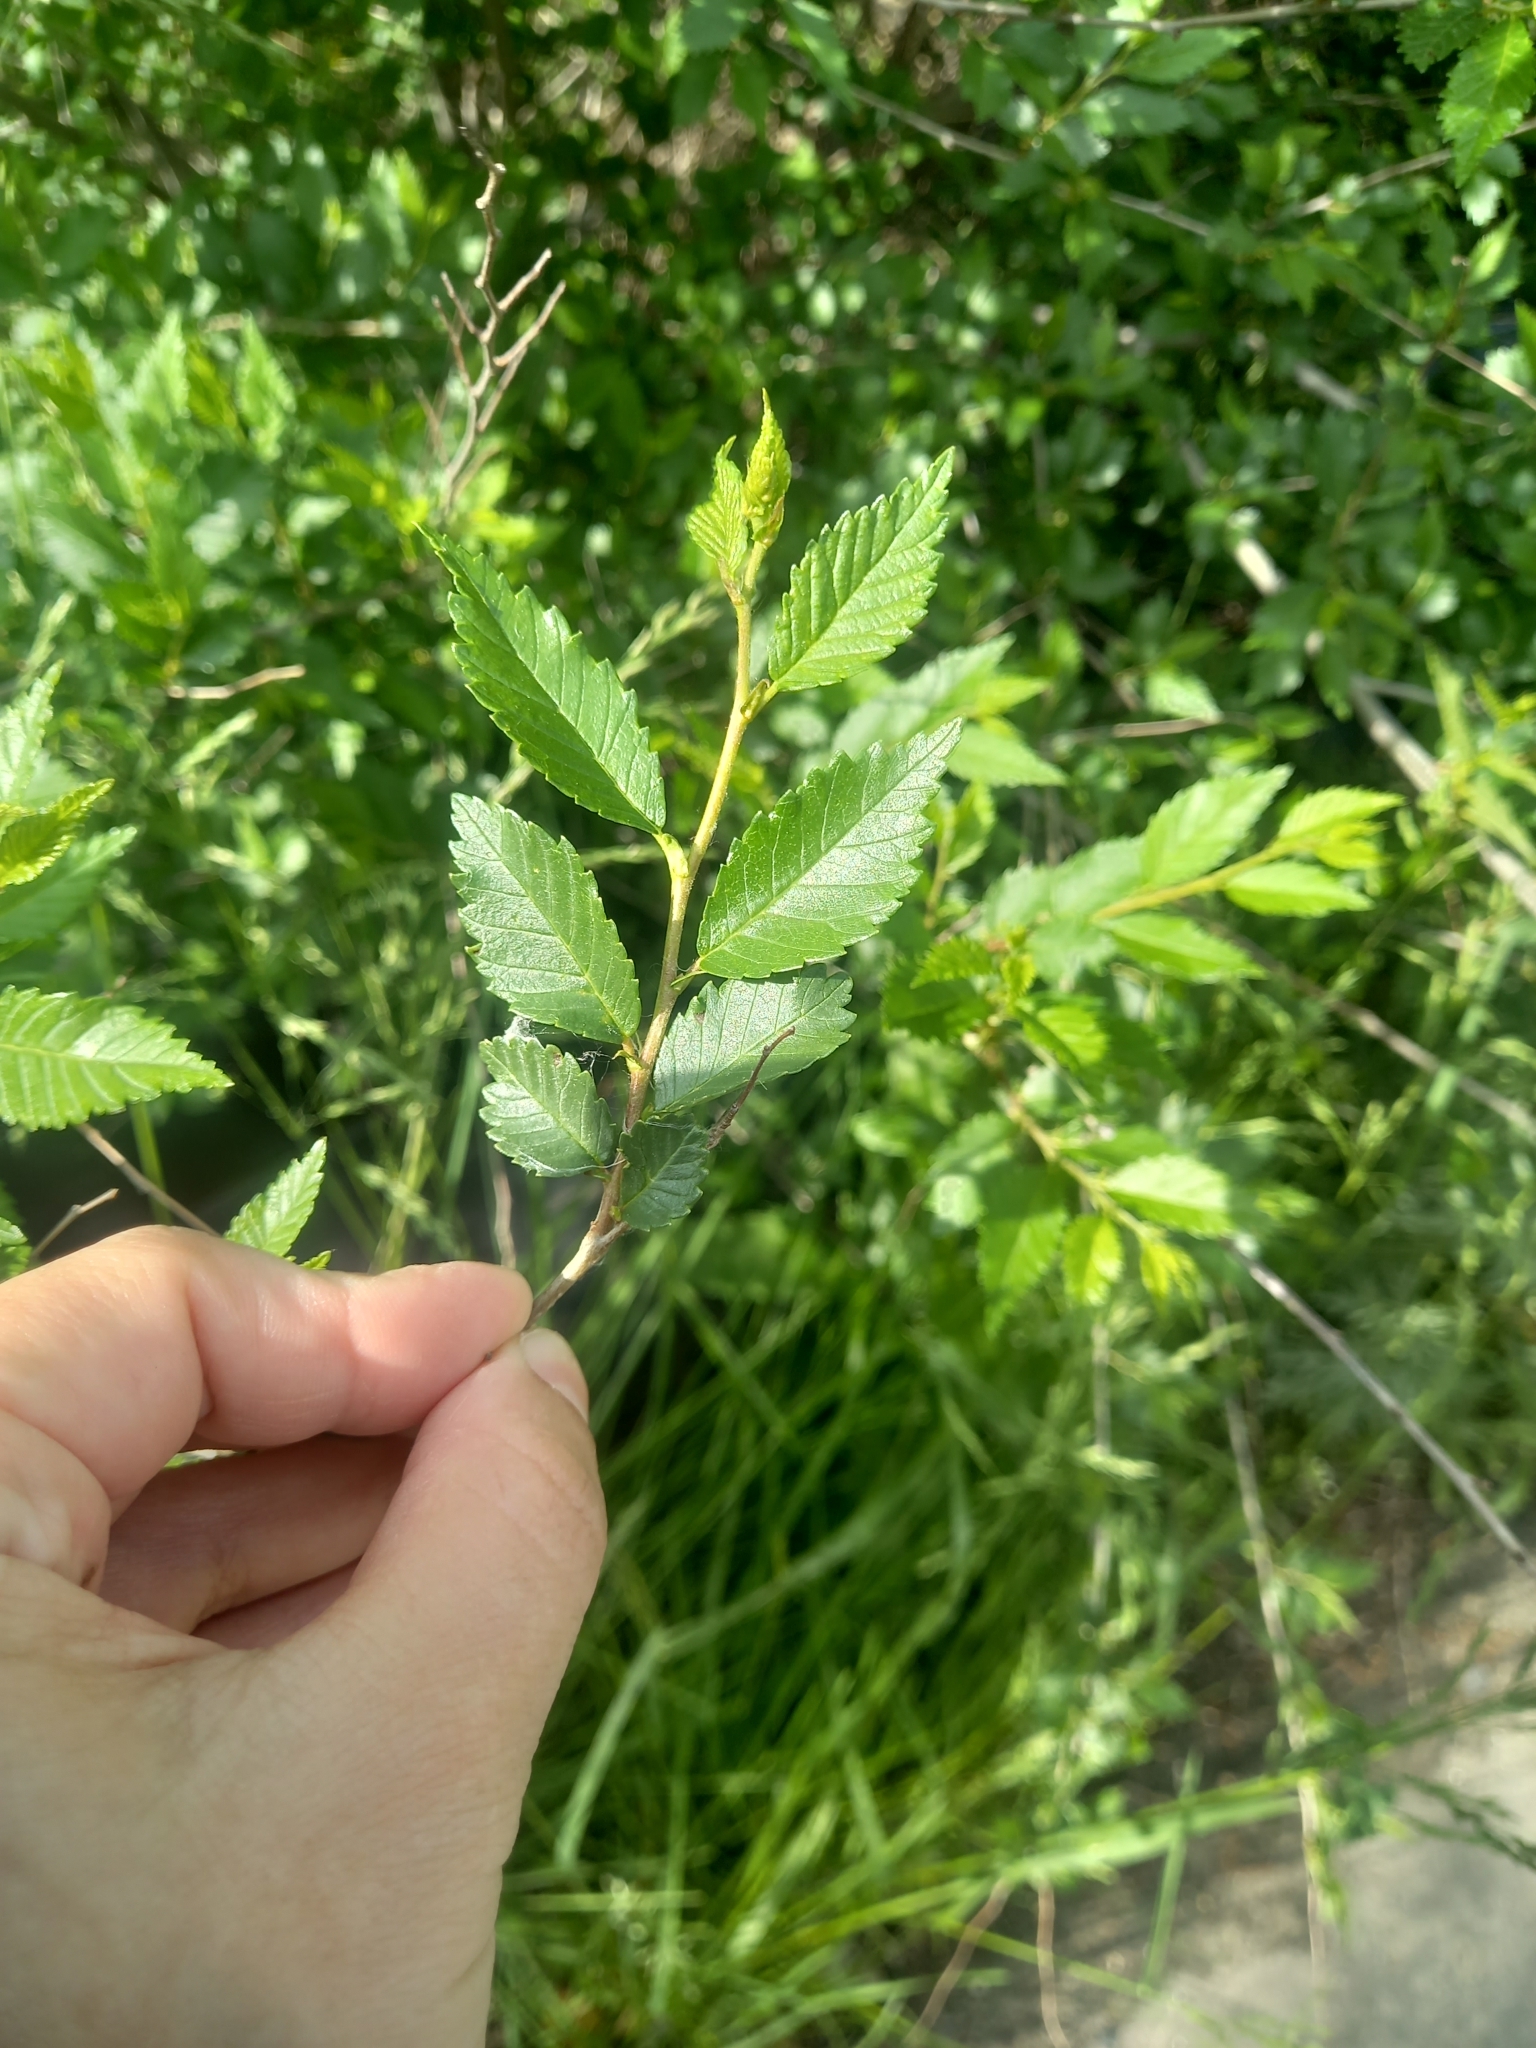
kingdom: Plantae
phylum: Tracheophyta
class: Magnoliopsida
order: Rosales
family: Ulmaceae
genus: Ulmus
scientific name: Ulmus pumila
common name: Siberian elm
